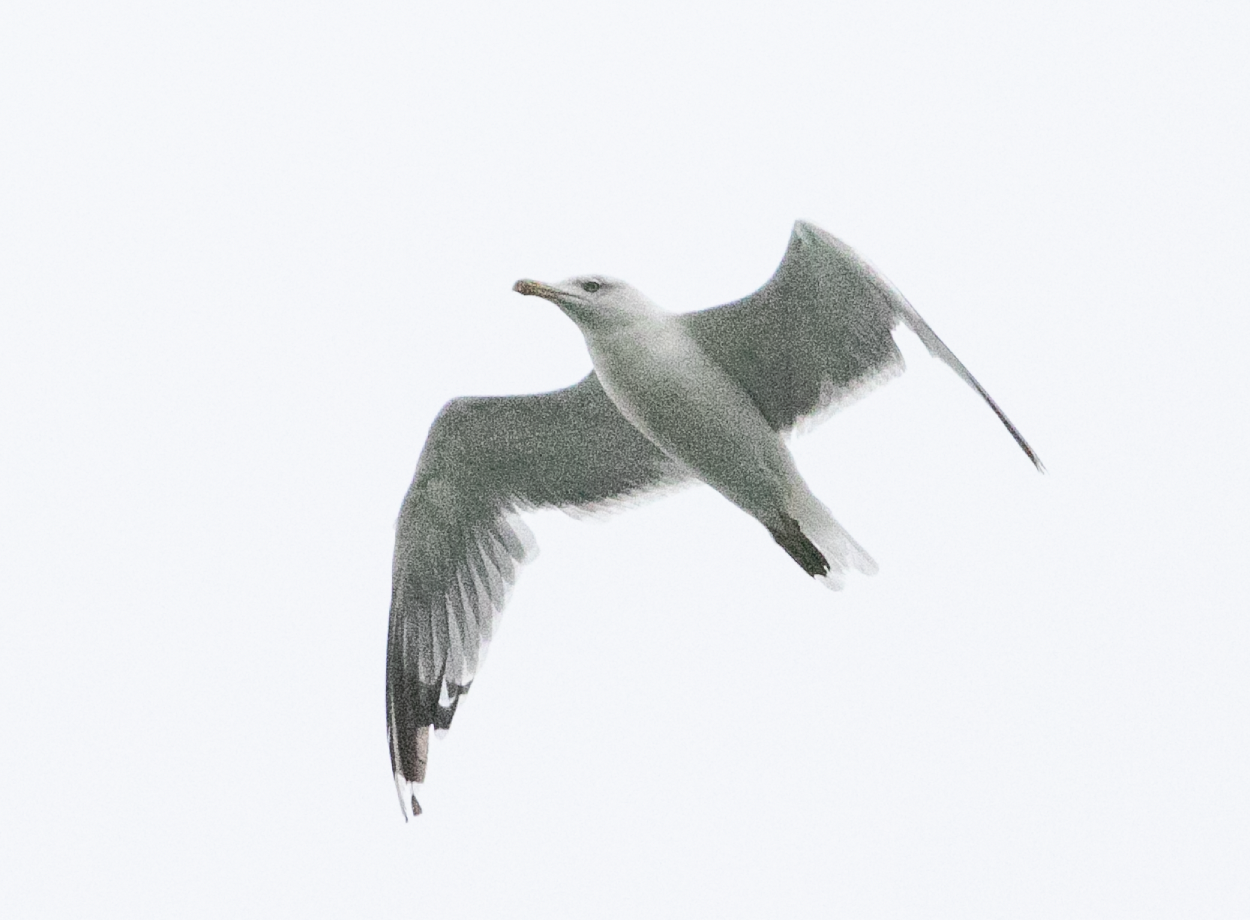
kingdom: Animalia
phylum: Chordata
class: Aves
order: Charadriiformes
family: Laridae
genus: Larus
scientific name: Larus michahellis
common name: Yellow-legged gull
